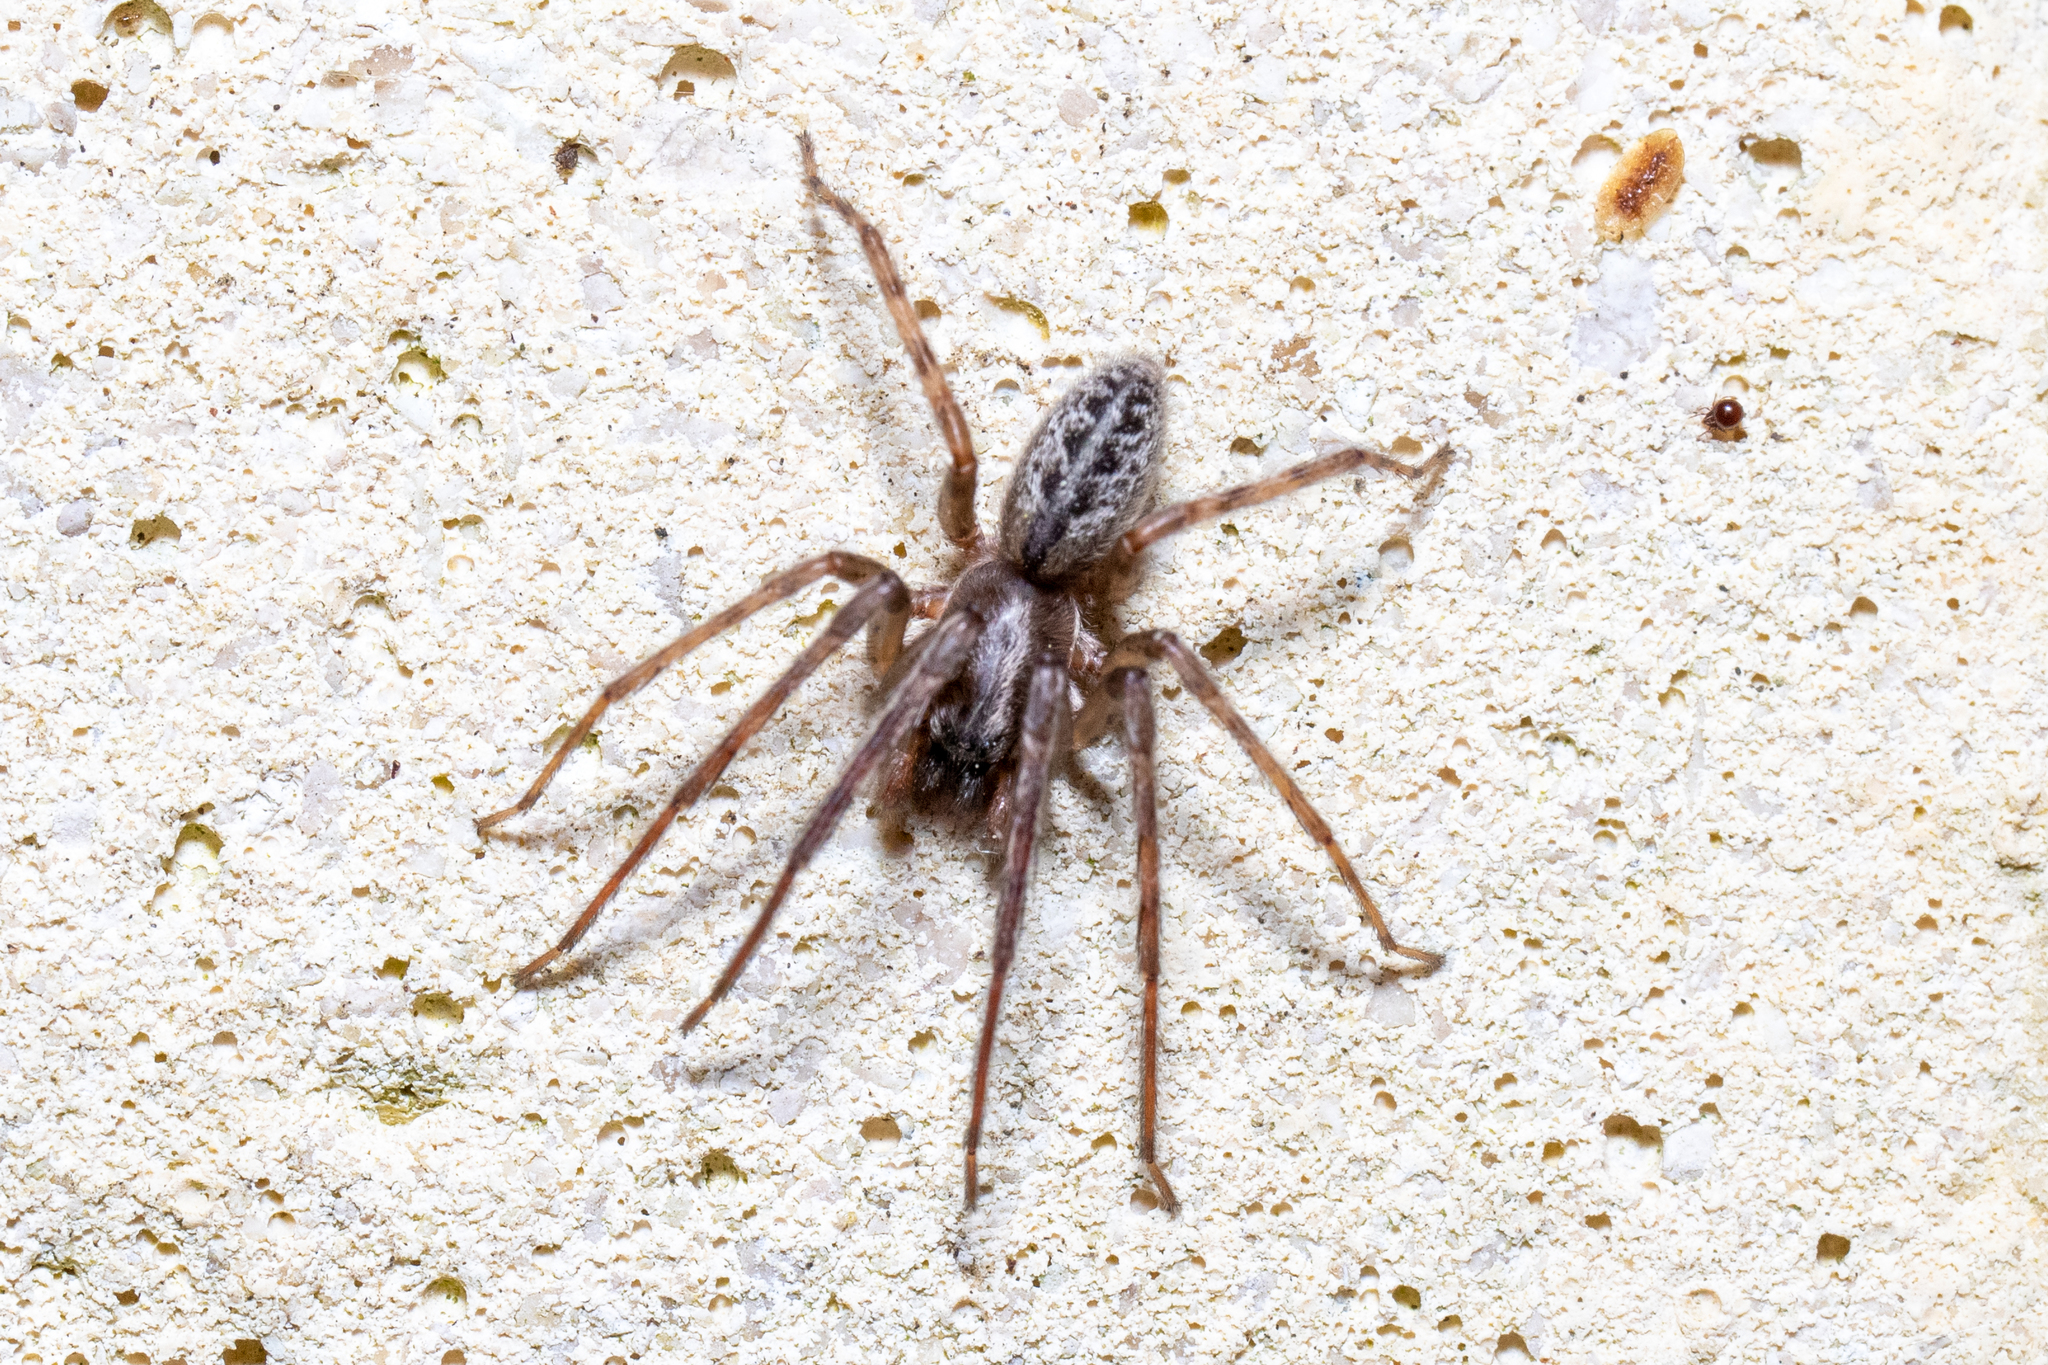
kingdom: Animalia
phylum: Arthropoda
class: Arachnida
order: Araneae
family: Segestriidae
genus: Segestria
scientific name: Segestria bavarica
